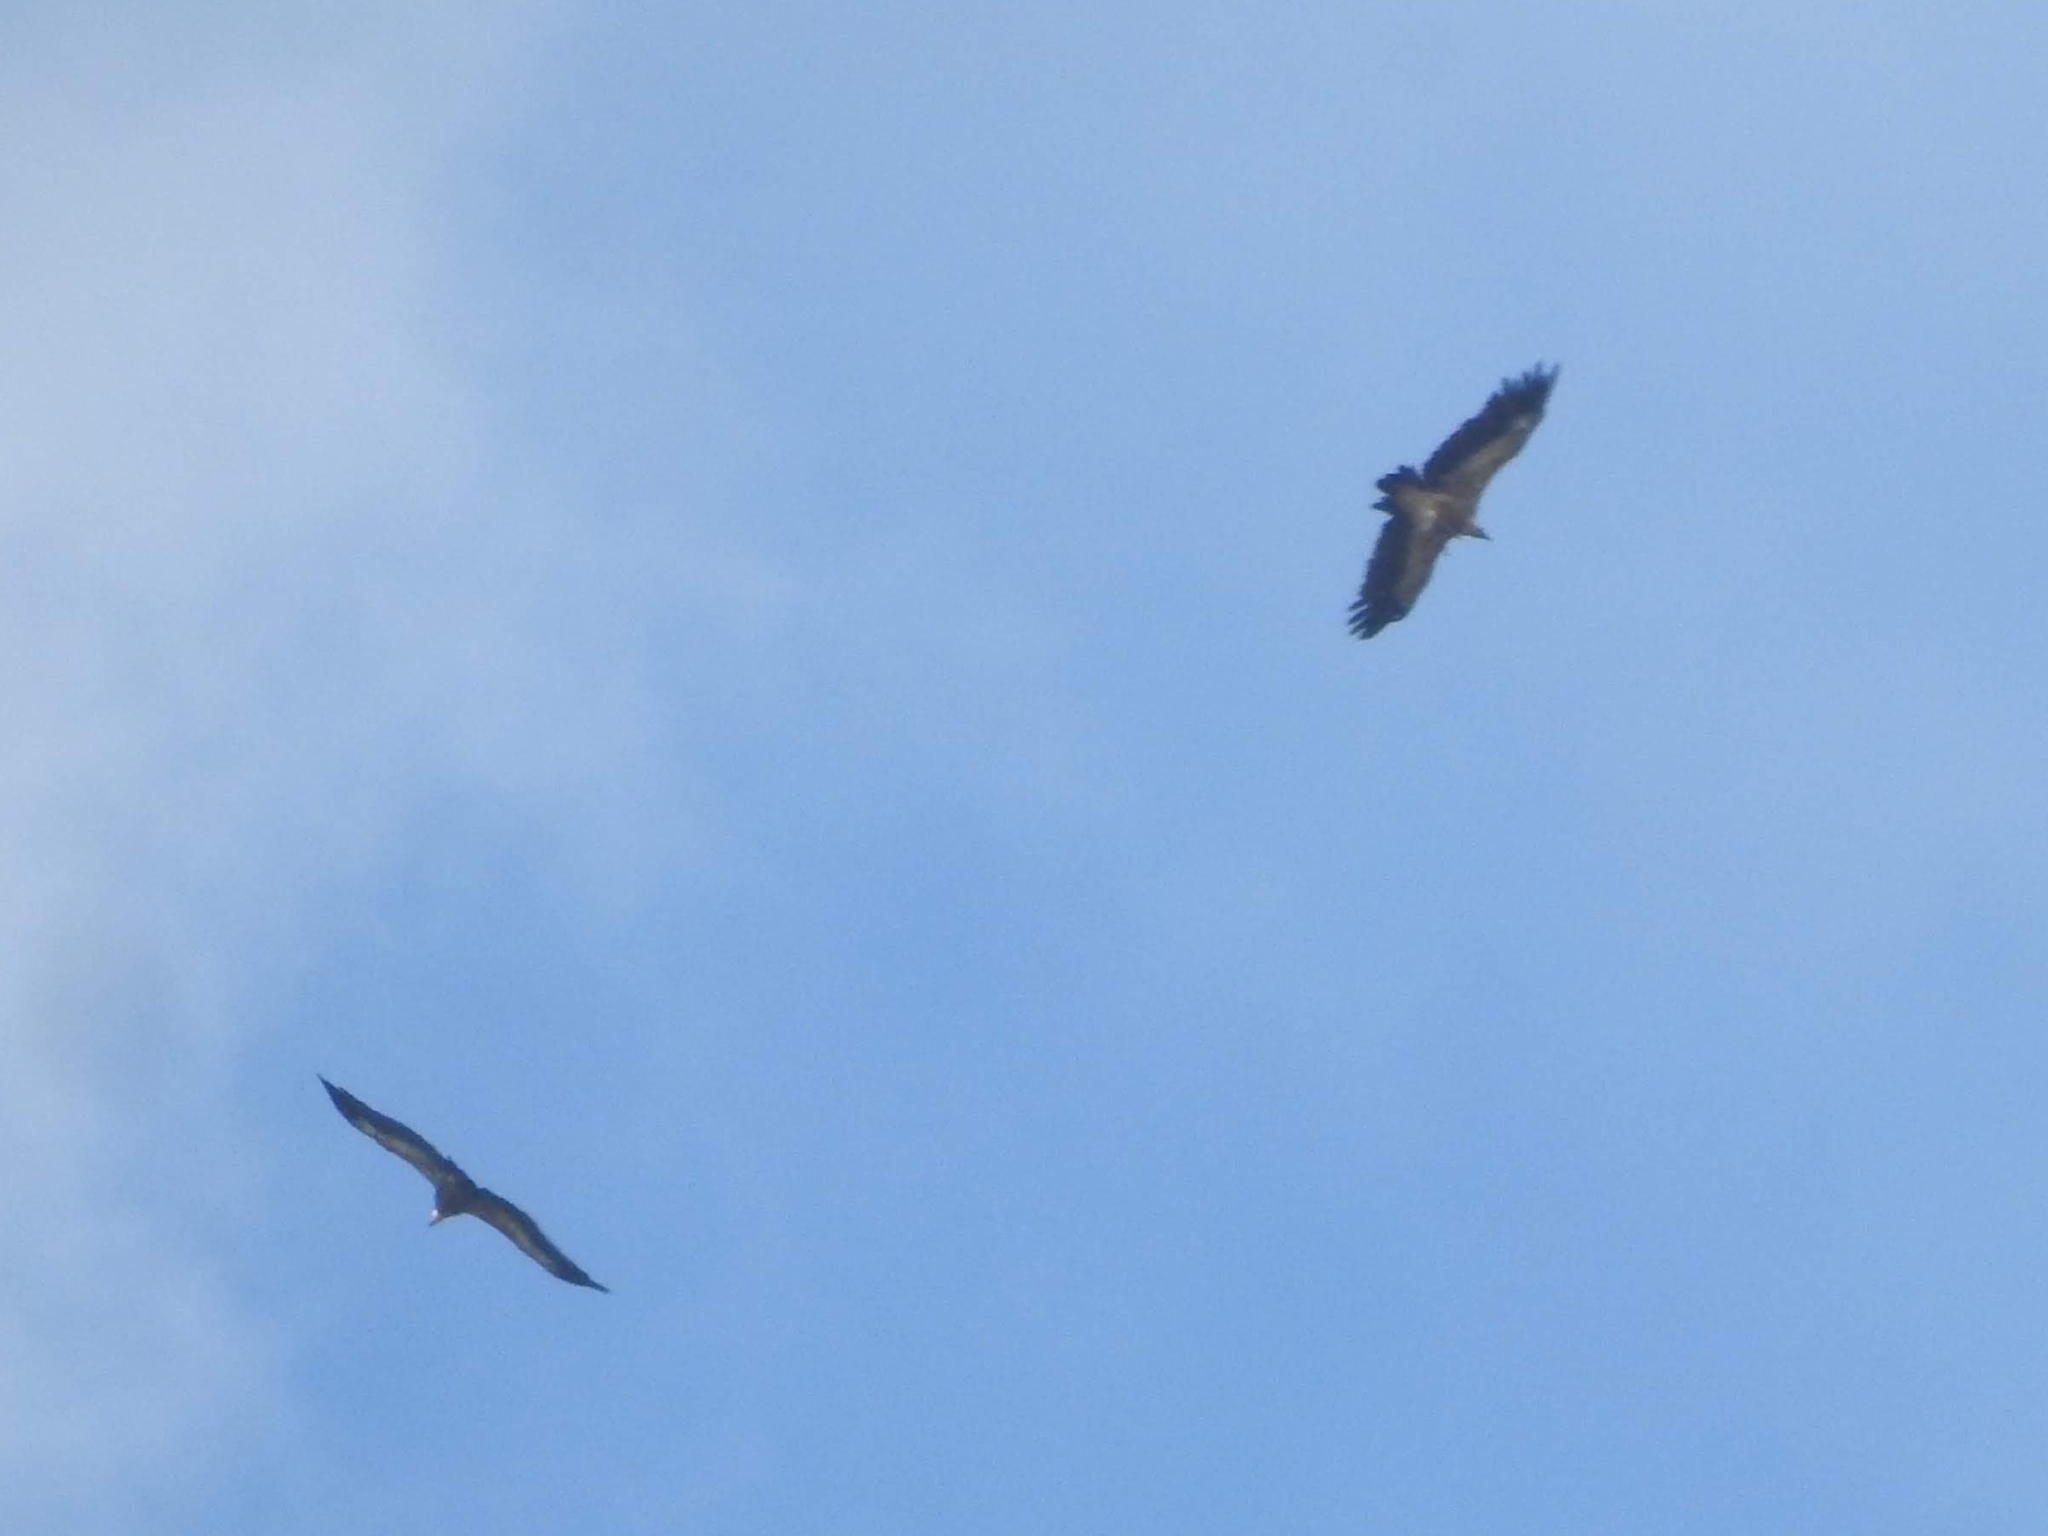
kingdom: Animalia
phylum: Chordata
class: Aves
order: Accipitriformes
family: Accipitridae
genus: Gyps
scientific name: Gyps fulvus
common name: Griffon vulture
